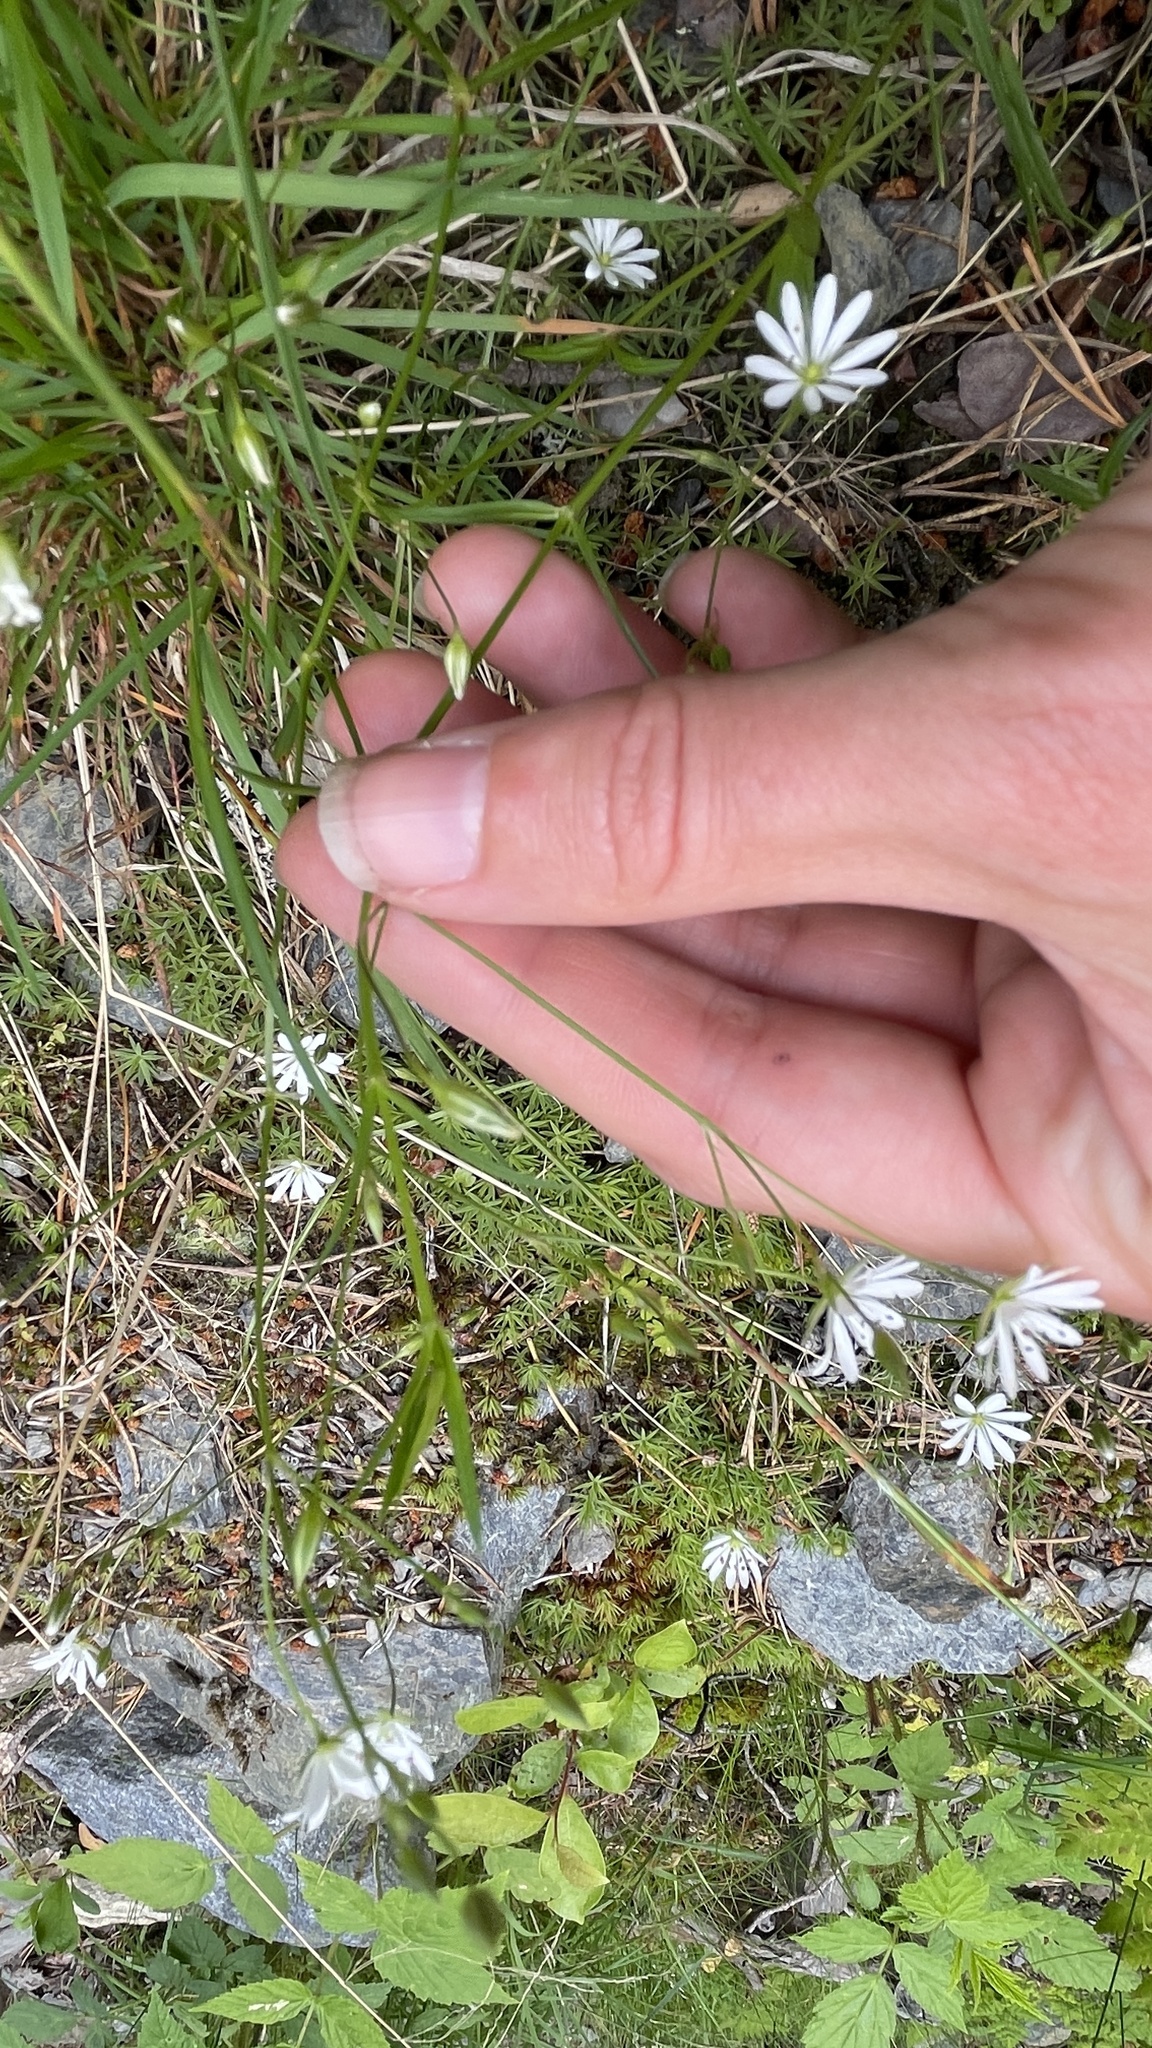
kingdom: Plantae
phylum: Tracheophyta
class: Magnoliopsida
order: Caryophyllales
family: Caryophyllaceae
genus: Stellaria
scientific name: Stellaria graminea
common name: Grass-like starwort
